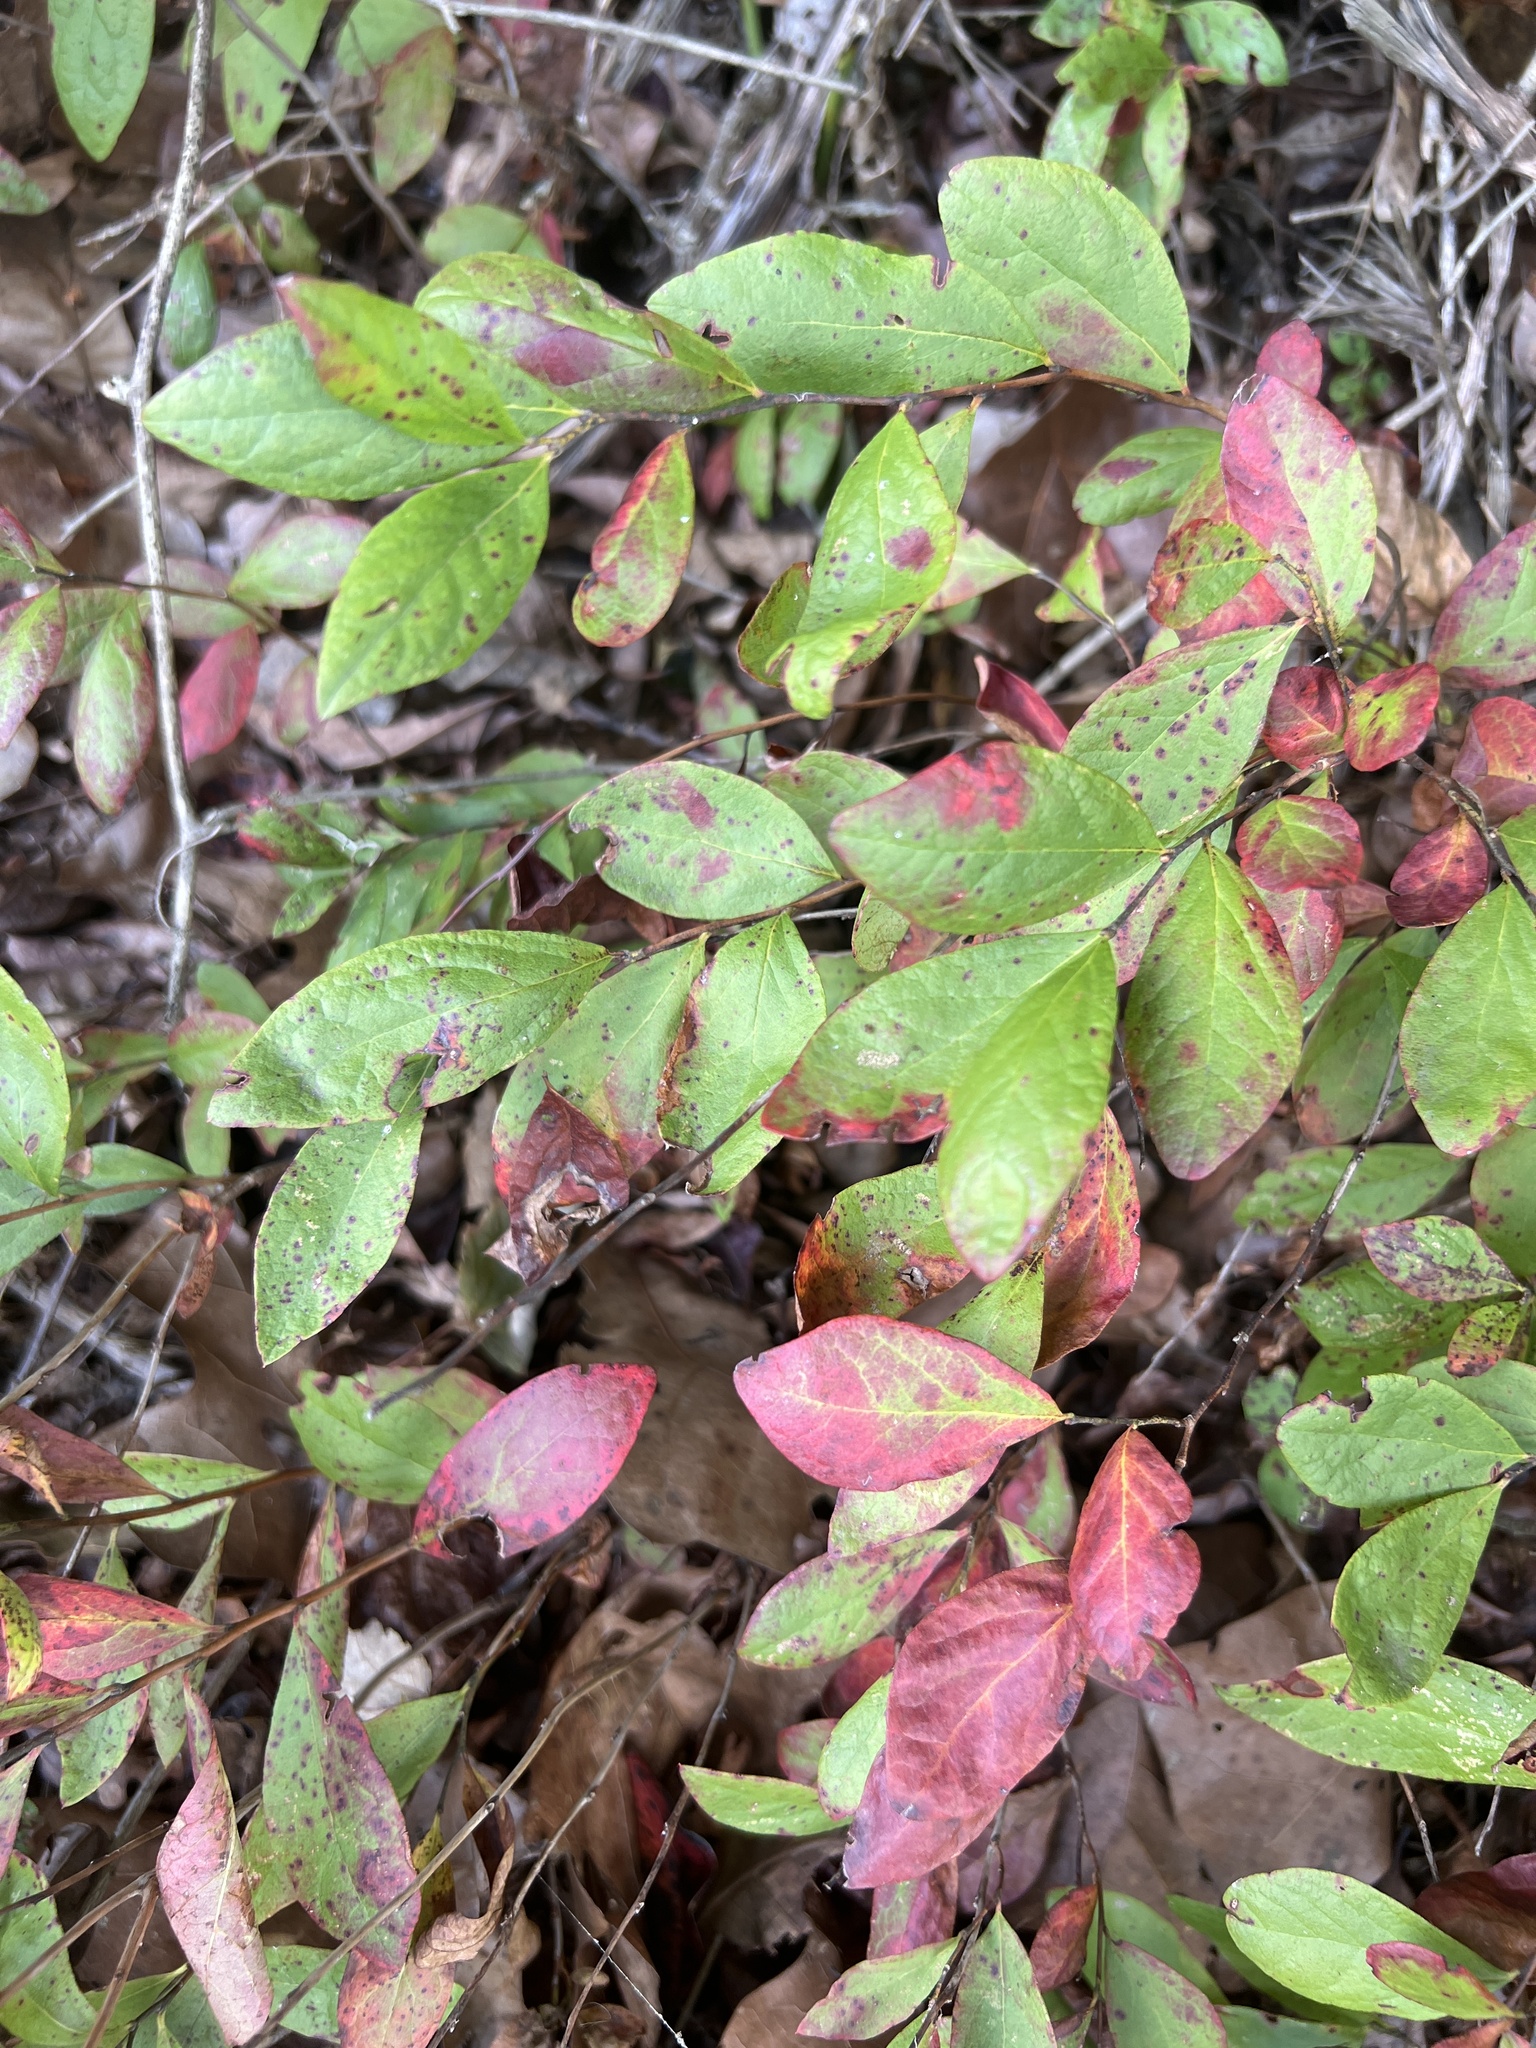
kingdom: Plantae
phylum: Tracheophyta
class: Magnoliopsida
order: Ericales
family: Ericaceae
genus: Gaylussacia
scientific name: Gaylussacia frondosa
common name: Dangleberry
